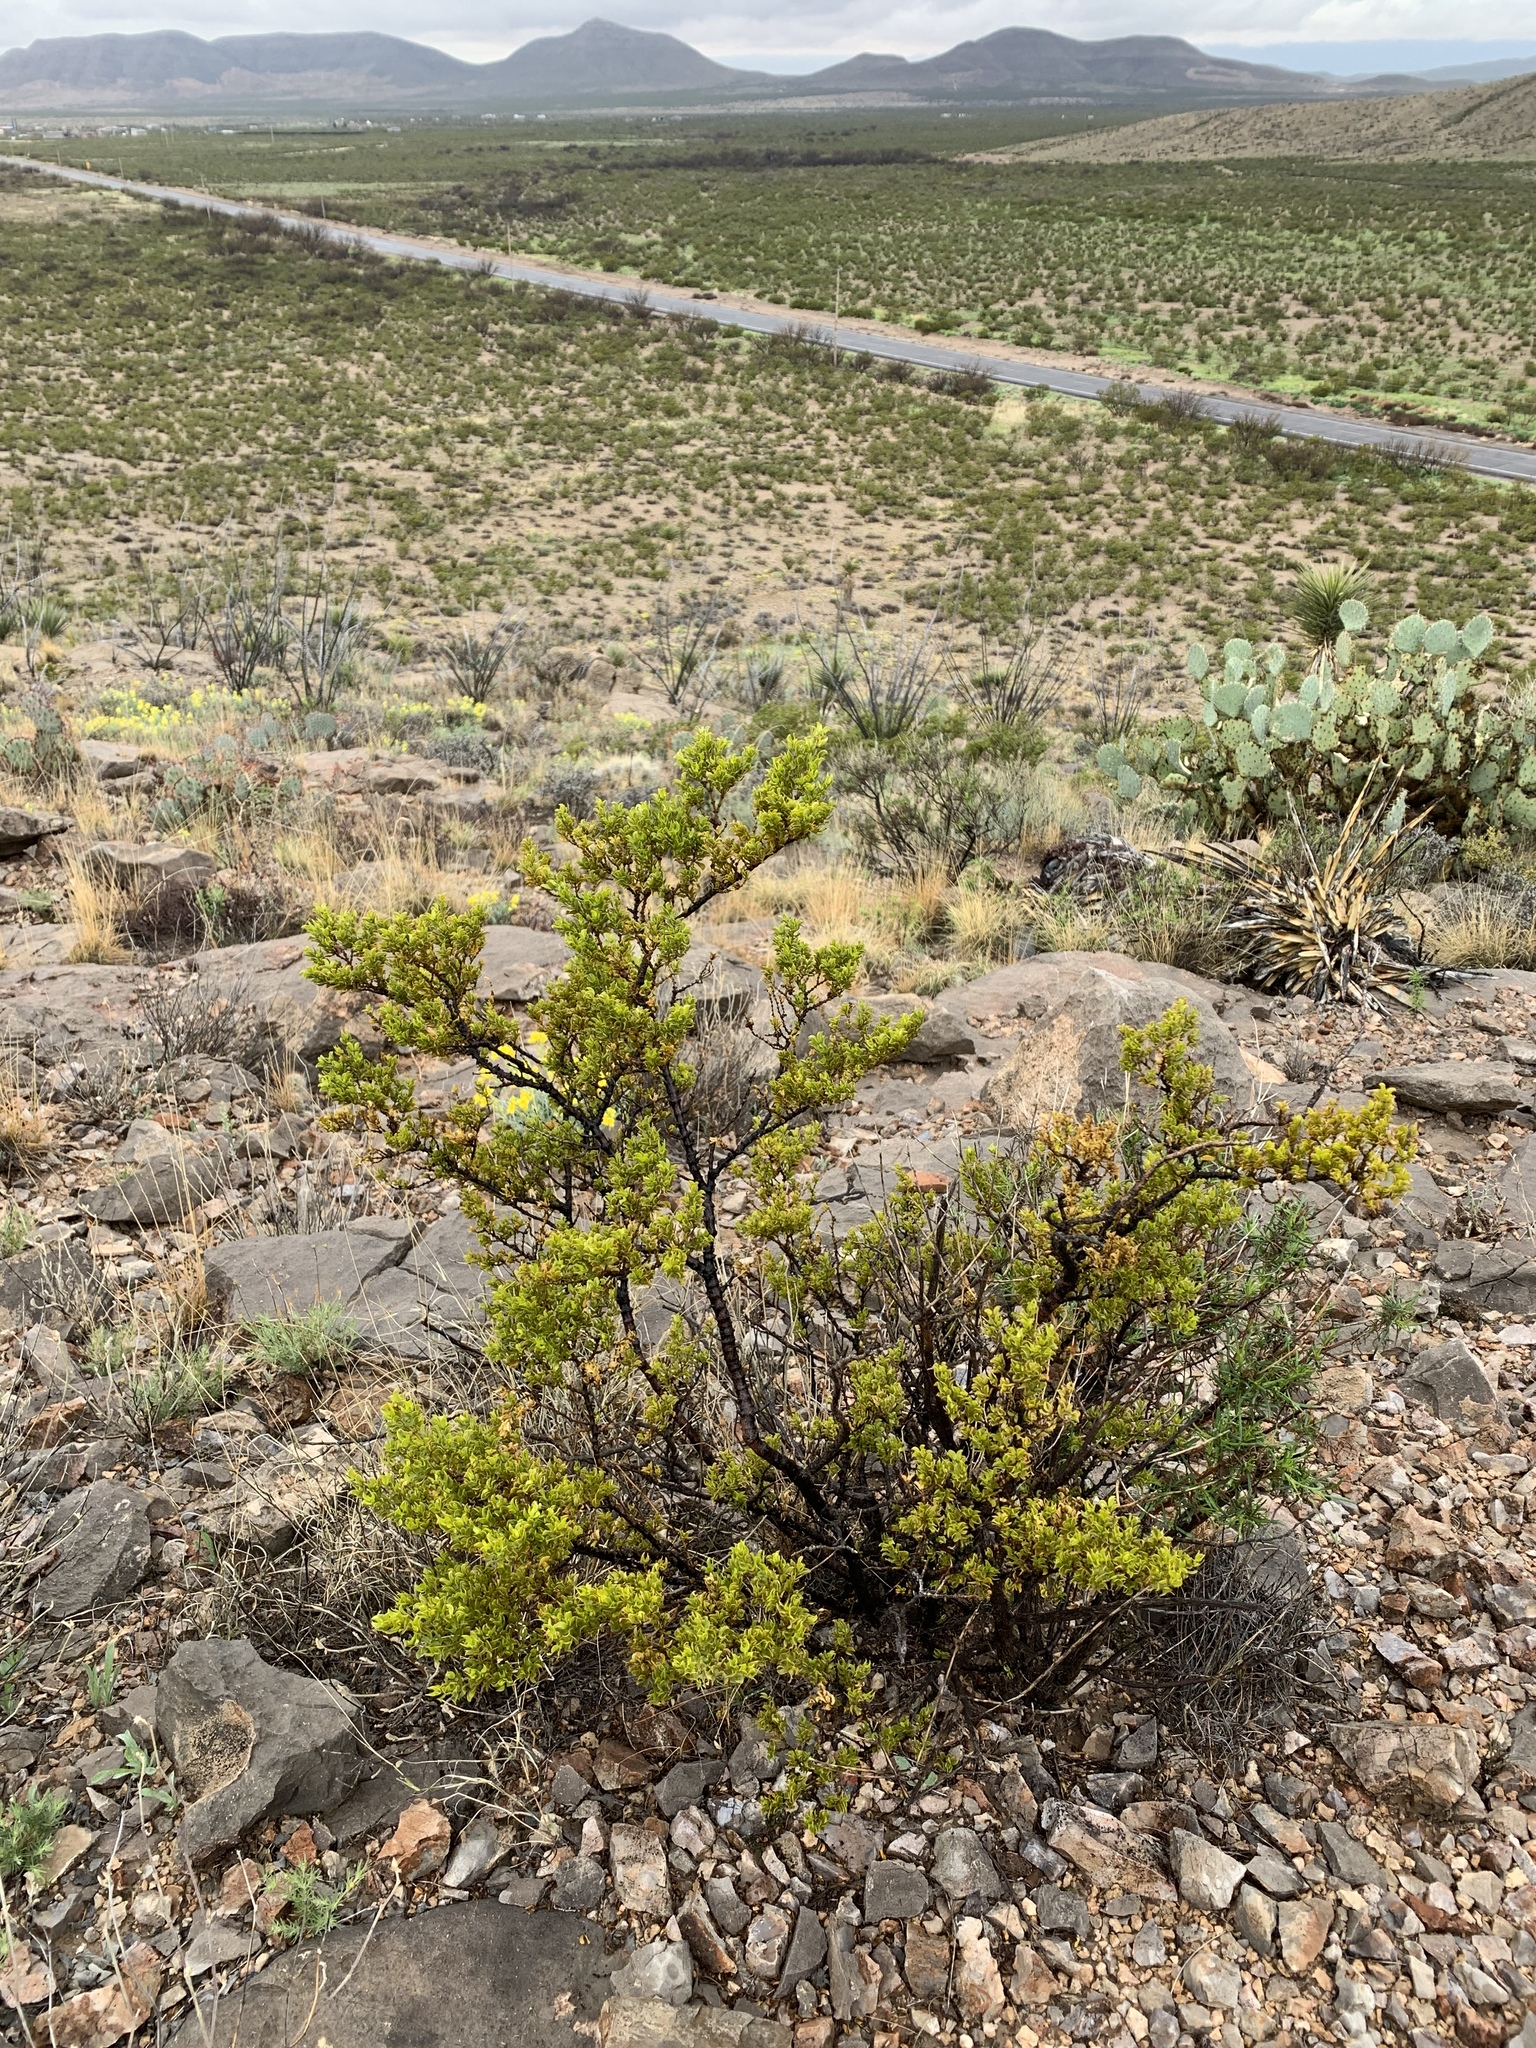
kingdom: Plantae
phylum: Tracheophyta
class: Magnoliopsida
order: Zygophyllales
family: Zygophyllaceae
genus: Larrea
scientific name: Larrea tridentata
